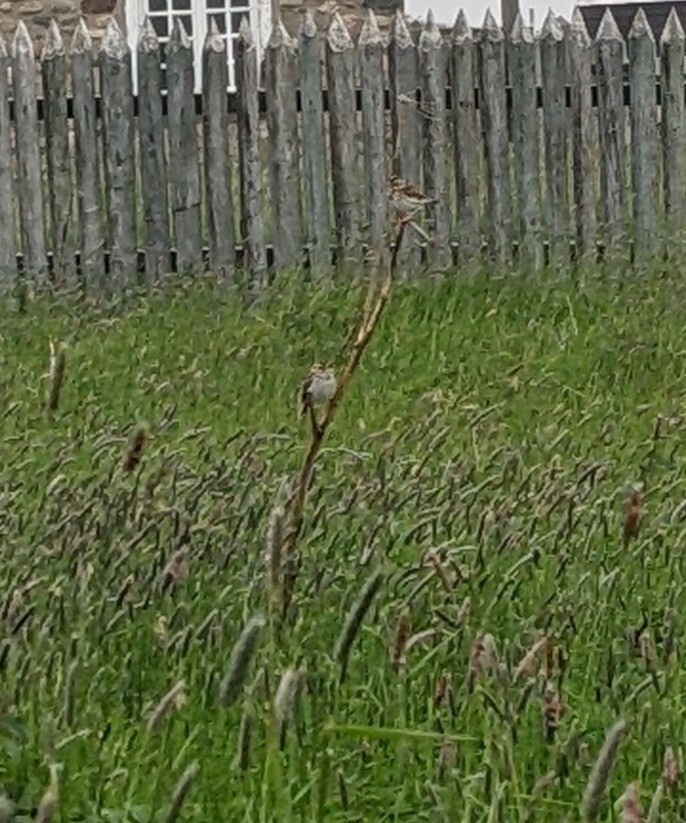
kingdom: Animalia
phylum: Chordata
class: Aves
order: Passeriformes
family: Passerellidae
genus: Melospiza
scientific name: Melospiza melodia
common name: Song sparrow
